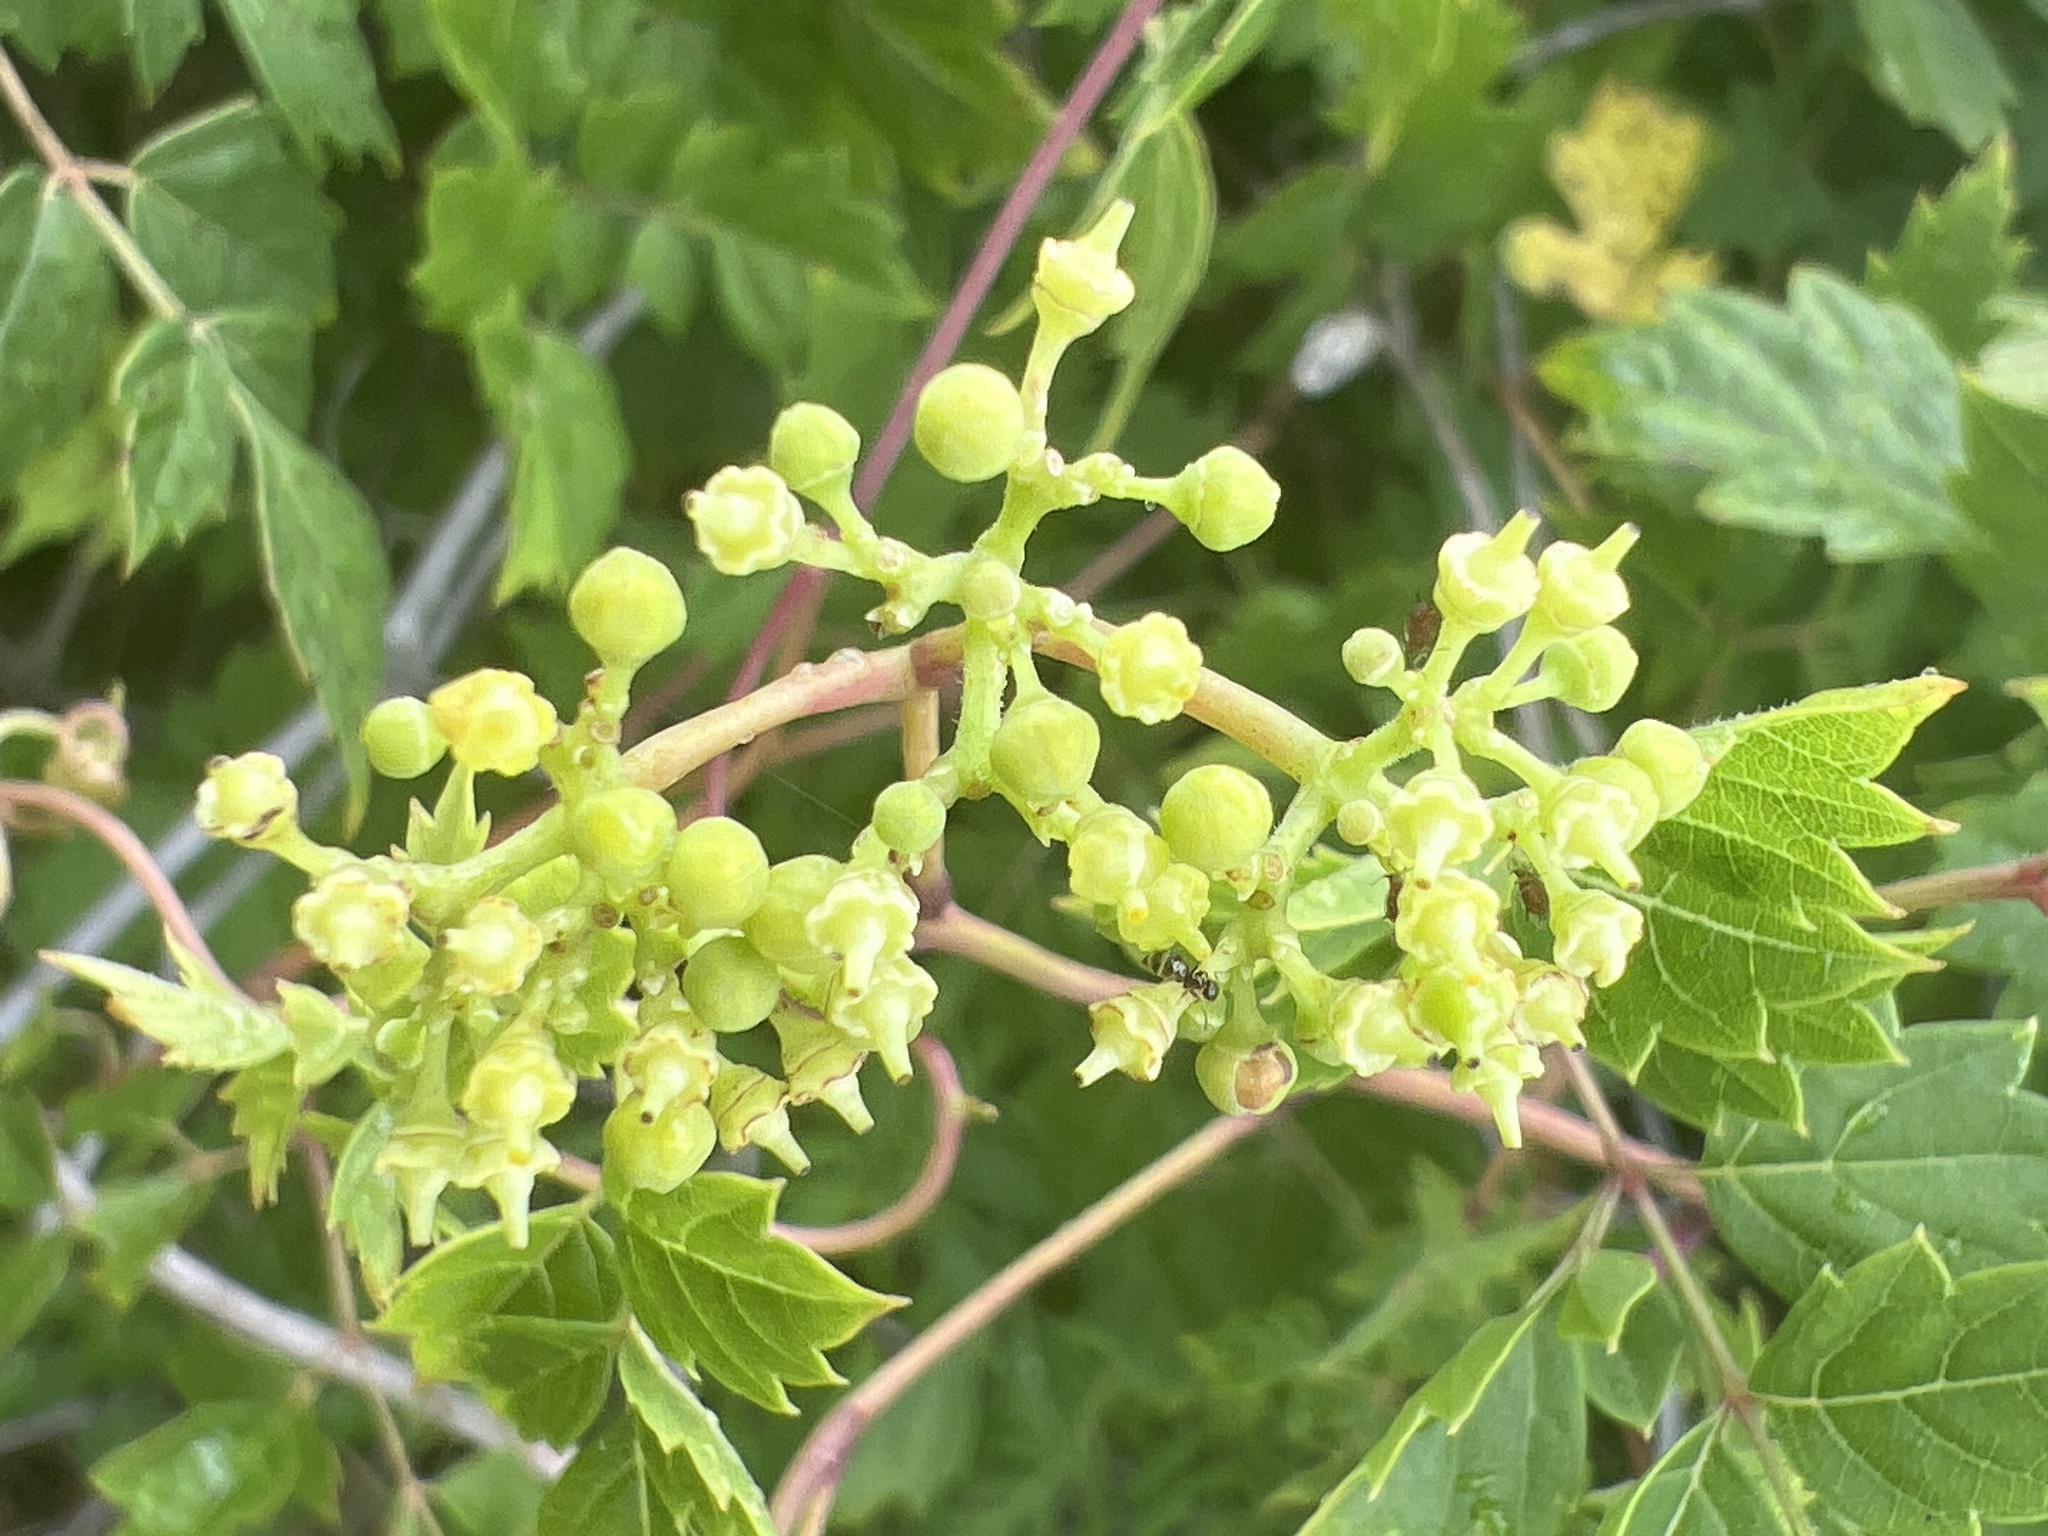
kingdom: Plantae
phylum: Tracheophyta
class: Magnoliopsida
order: Vitales
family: Vitaceae
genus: Nekemias
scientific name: Nekemias arborea
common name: Peppervine
